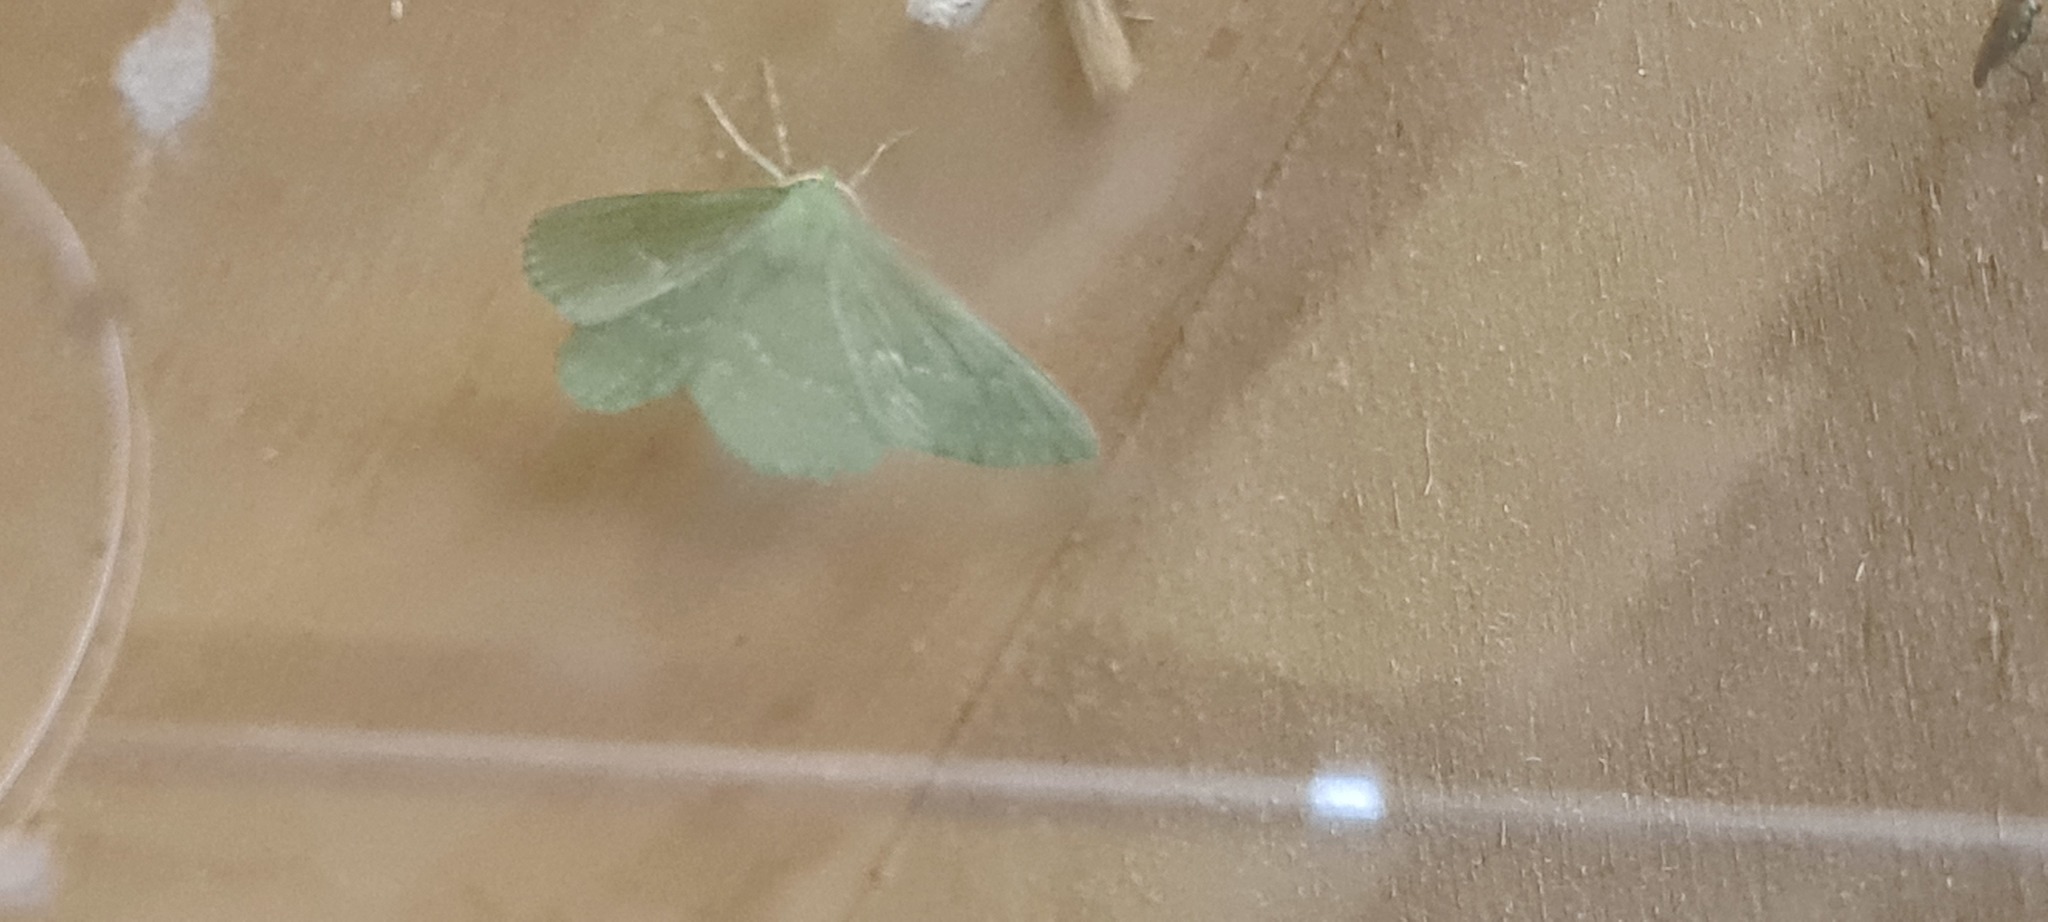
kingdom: Animalia
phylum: Arthropoda
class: Insecta
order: Lepidoptera
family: Geometridae
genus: Geometra
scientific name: Geometra papilionaria
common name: Large emerald
